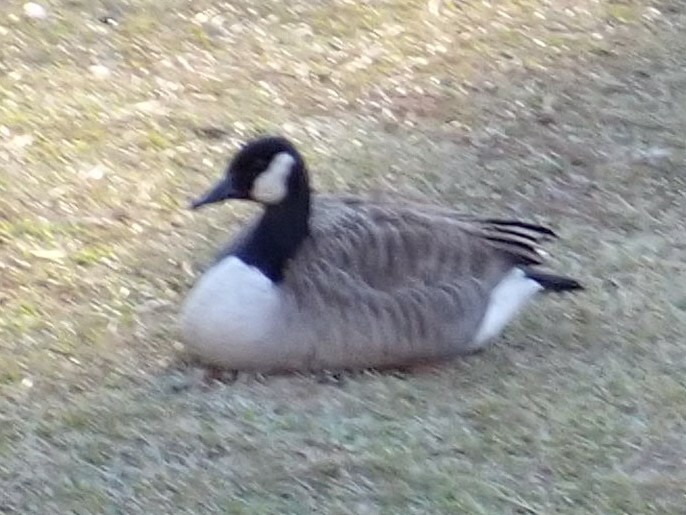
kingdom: Animalia
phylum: Chordata
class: Aves
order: Anseriformes
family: Anatidae
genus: Branta
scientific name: Branta canadensis
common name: Canada goose
